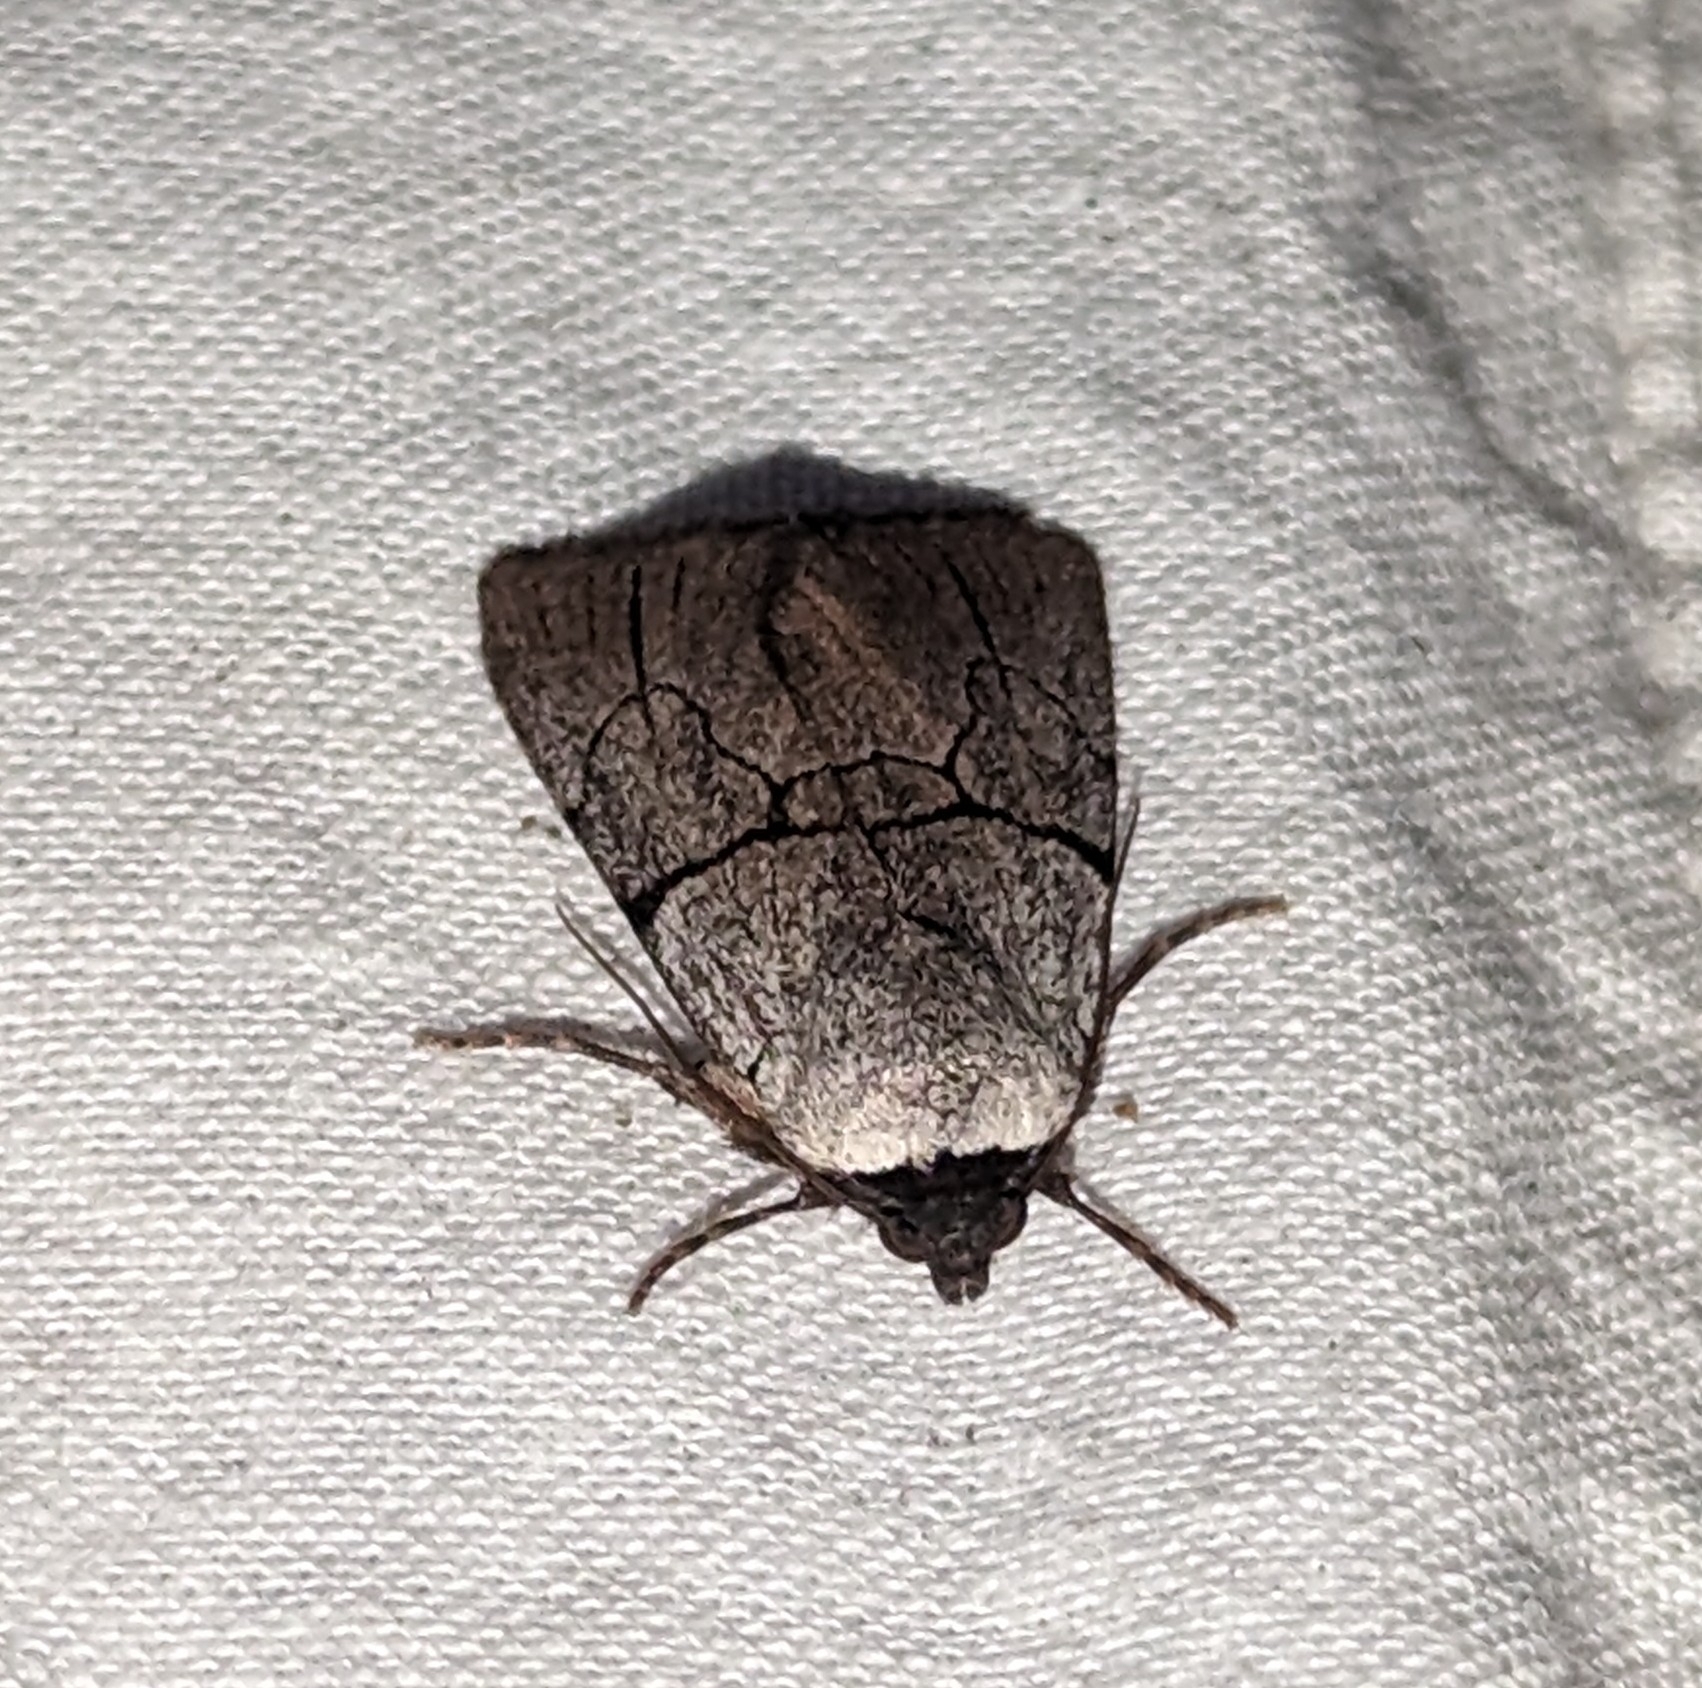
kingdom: Animalia
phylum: Arthropoda
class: Insecta
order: Lepidoptera
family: Noctuidae
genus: Sympistis
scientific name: Sympistis greyi
